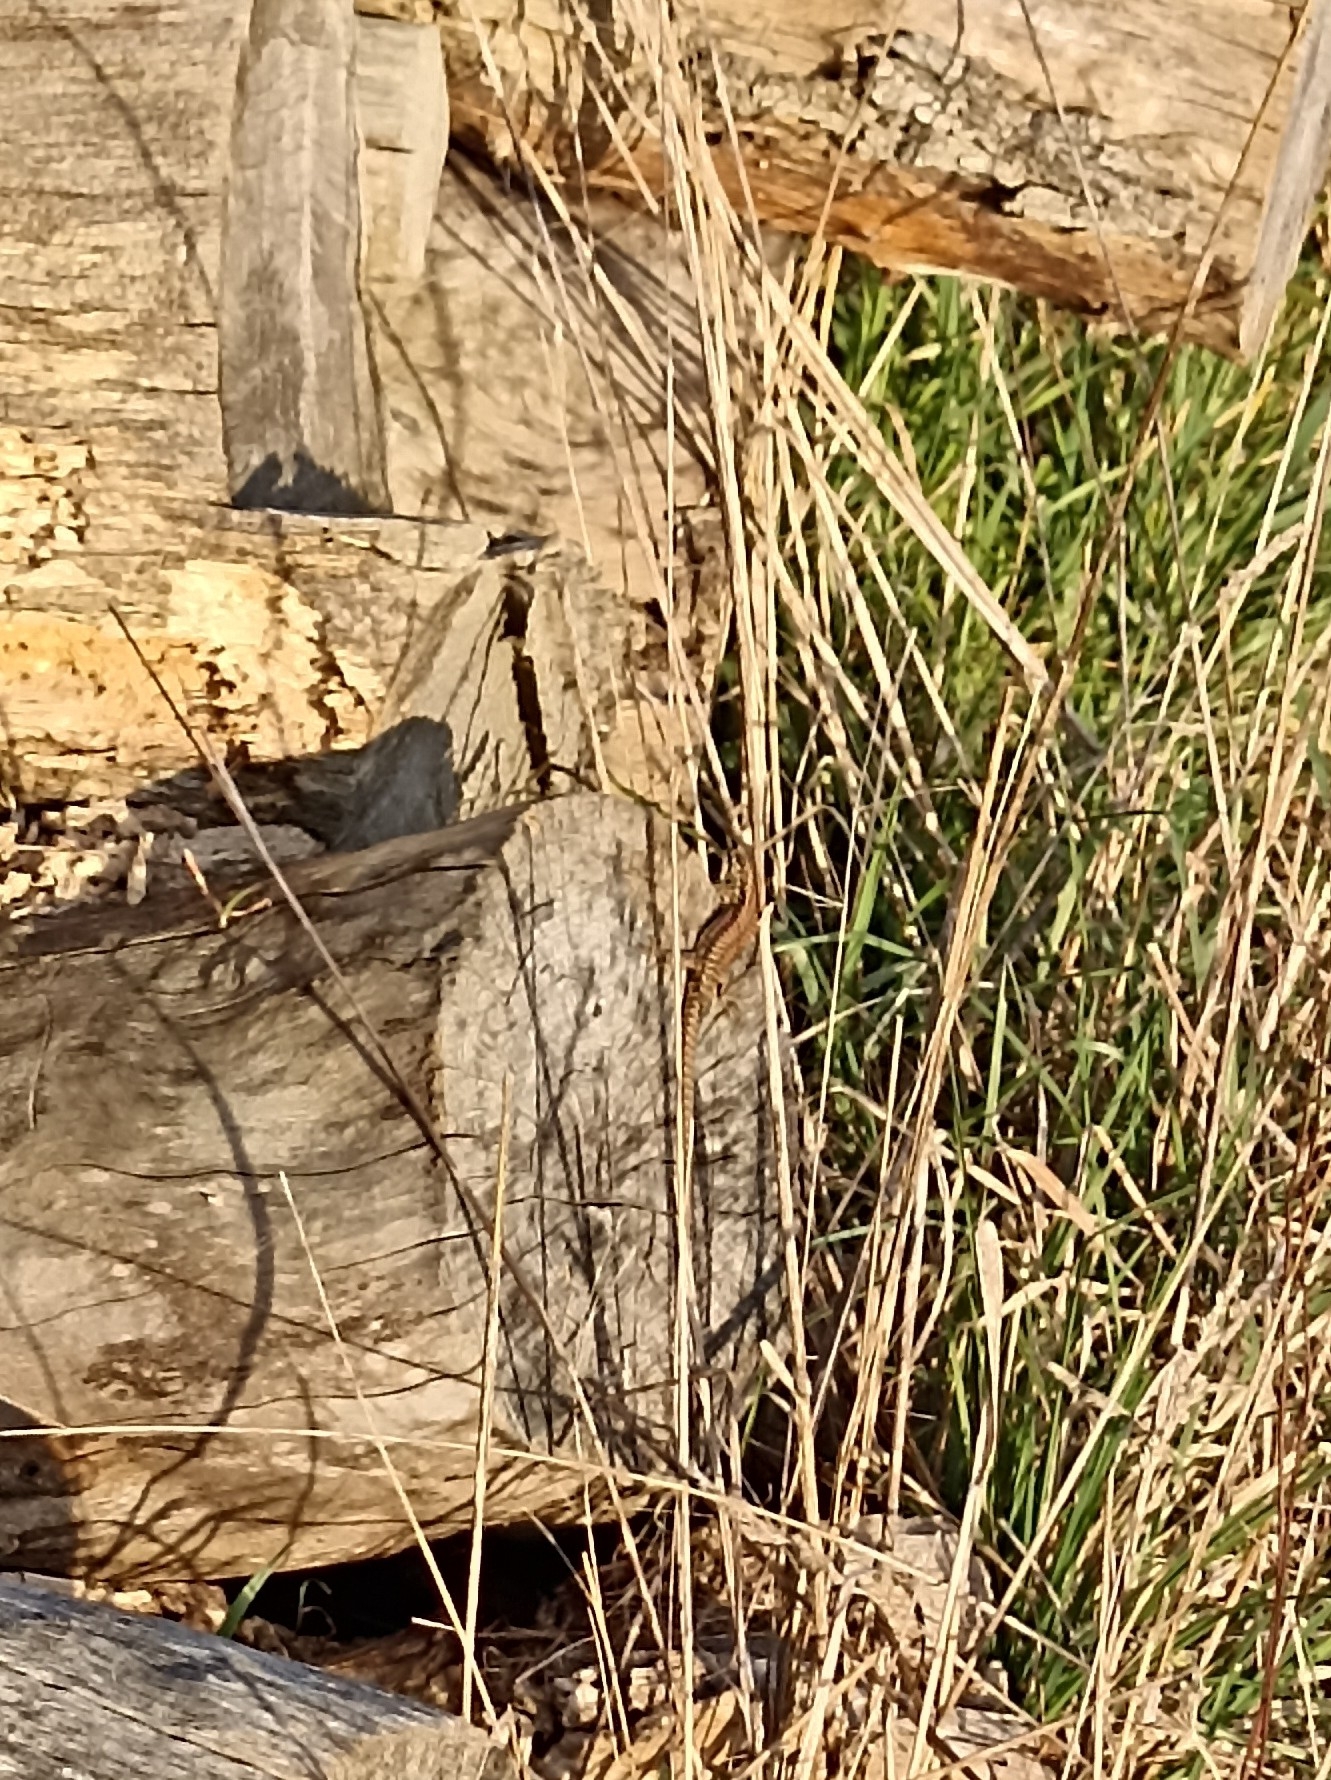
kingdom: Animalia
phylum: Chordata
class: Squamata
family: Lacertidae
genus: Podarcis
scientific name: Podarcis muralis
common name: Common wall lizard
